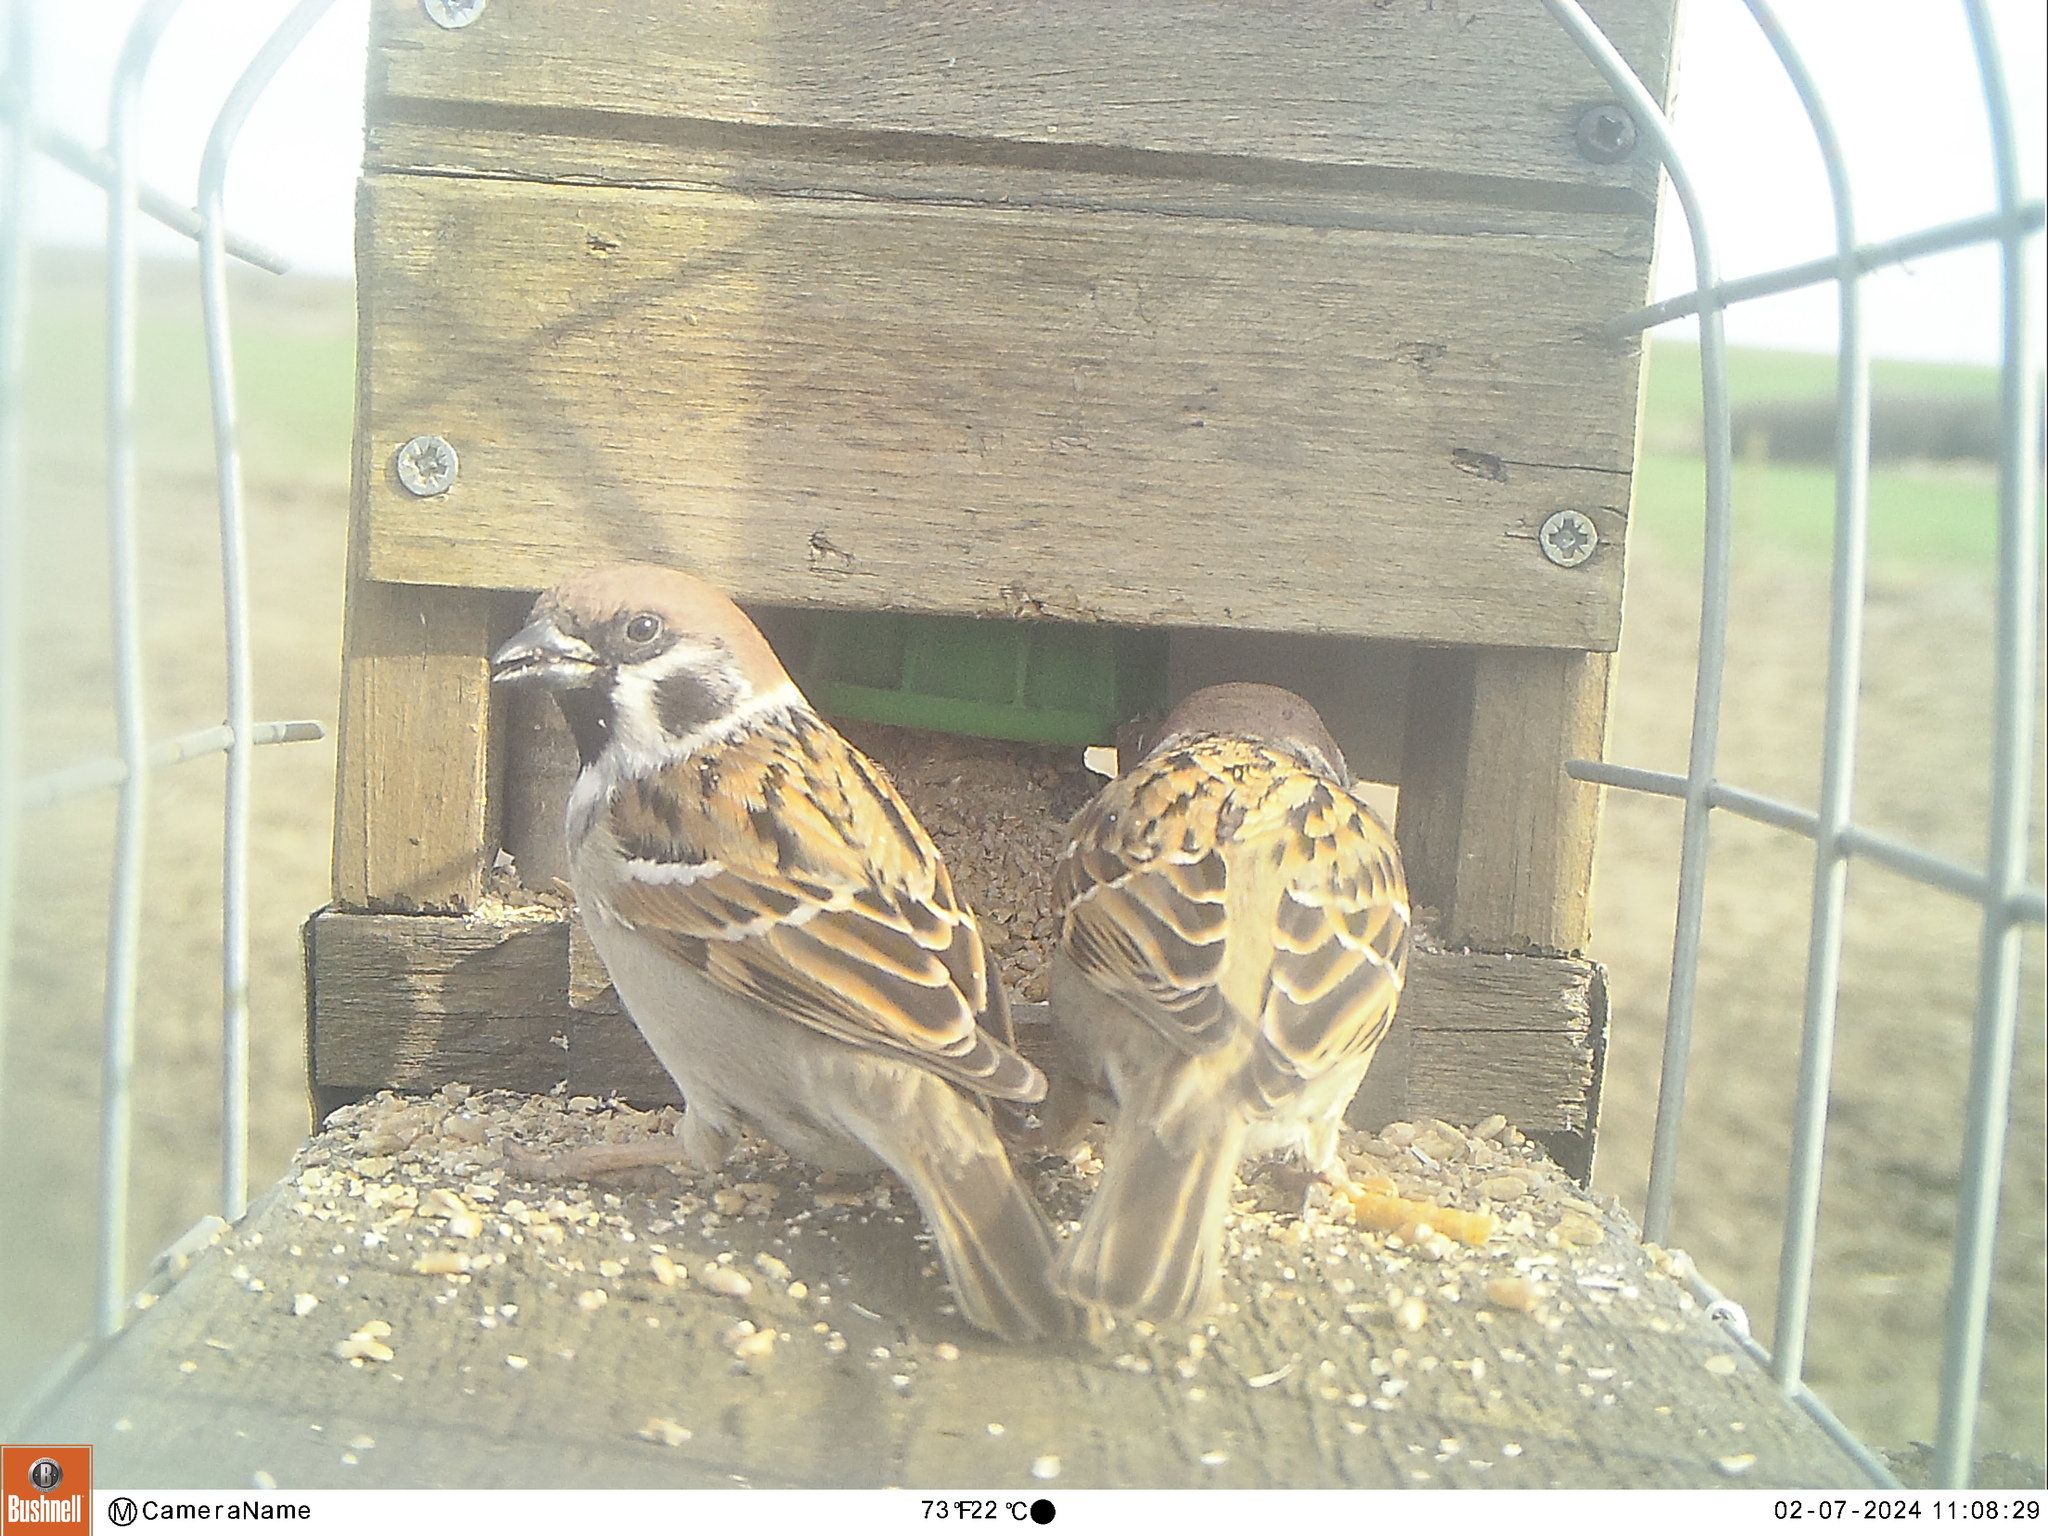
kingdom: Animalia
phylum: Chordata
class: Aves
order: Passeriformes
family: Passeridae
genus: Passer
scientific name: Passer montanus
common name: Eurasian tree sparrow
